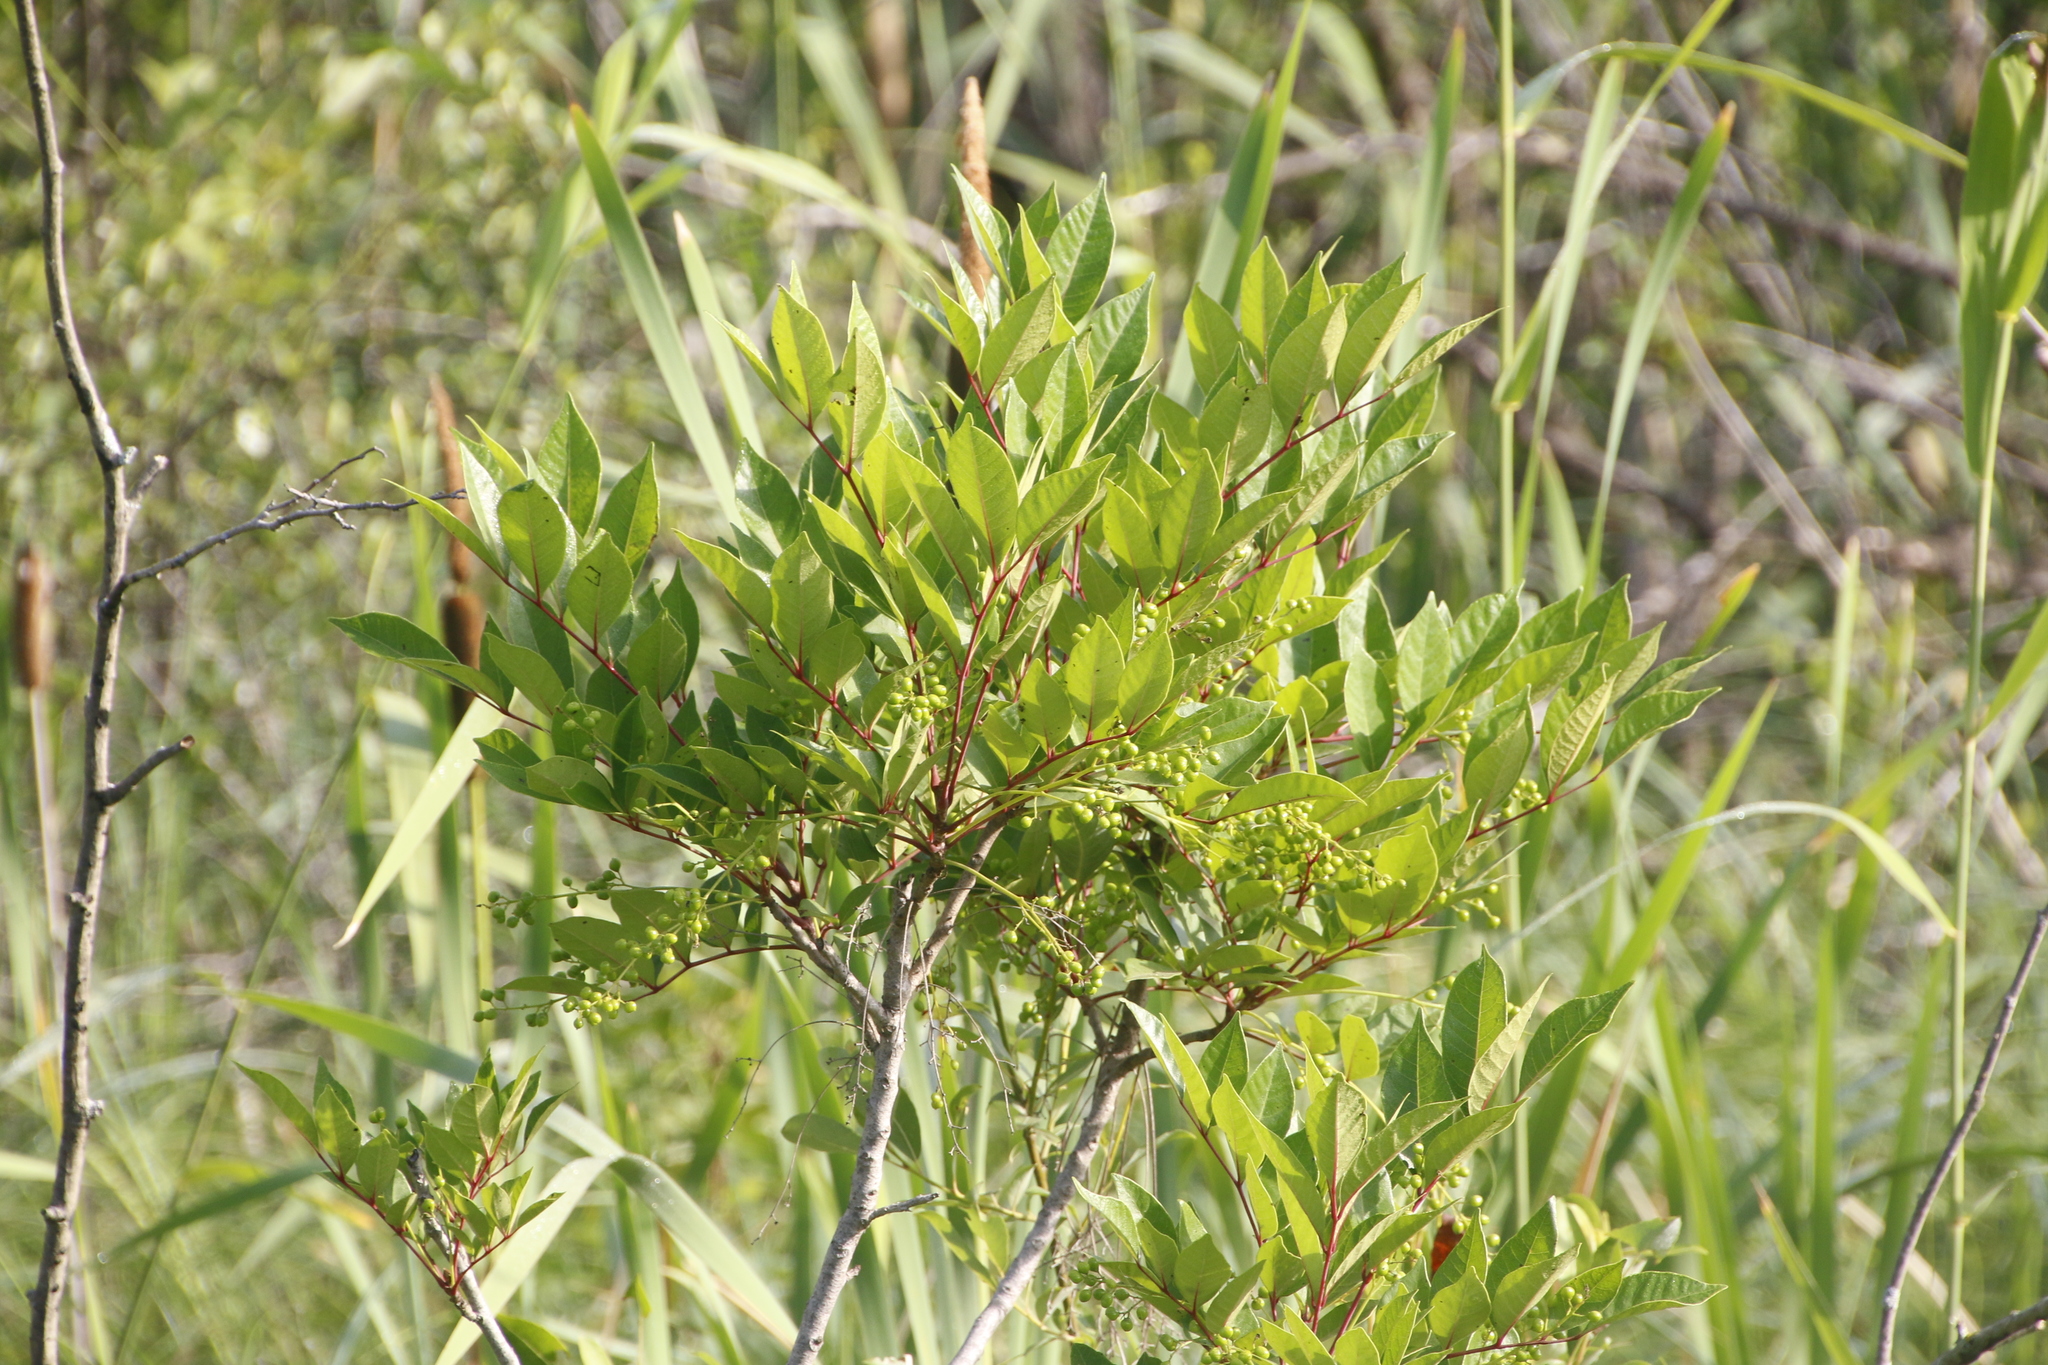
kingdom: Plantae
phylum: Tracheophyta
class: Magnoliopsida
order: Sapindales
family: Anacardiaceae
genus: Toxicodendron
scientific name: Toxicodendron vernix
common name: Poison sumac
